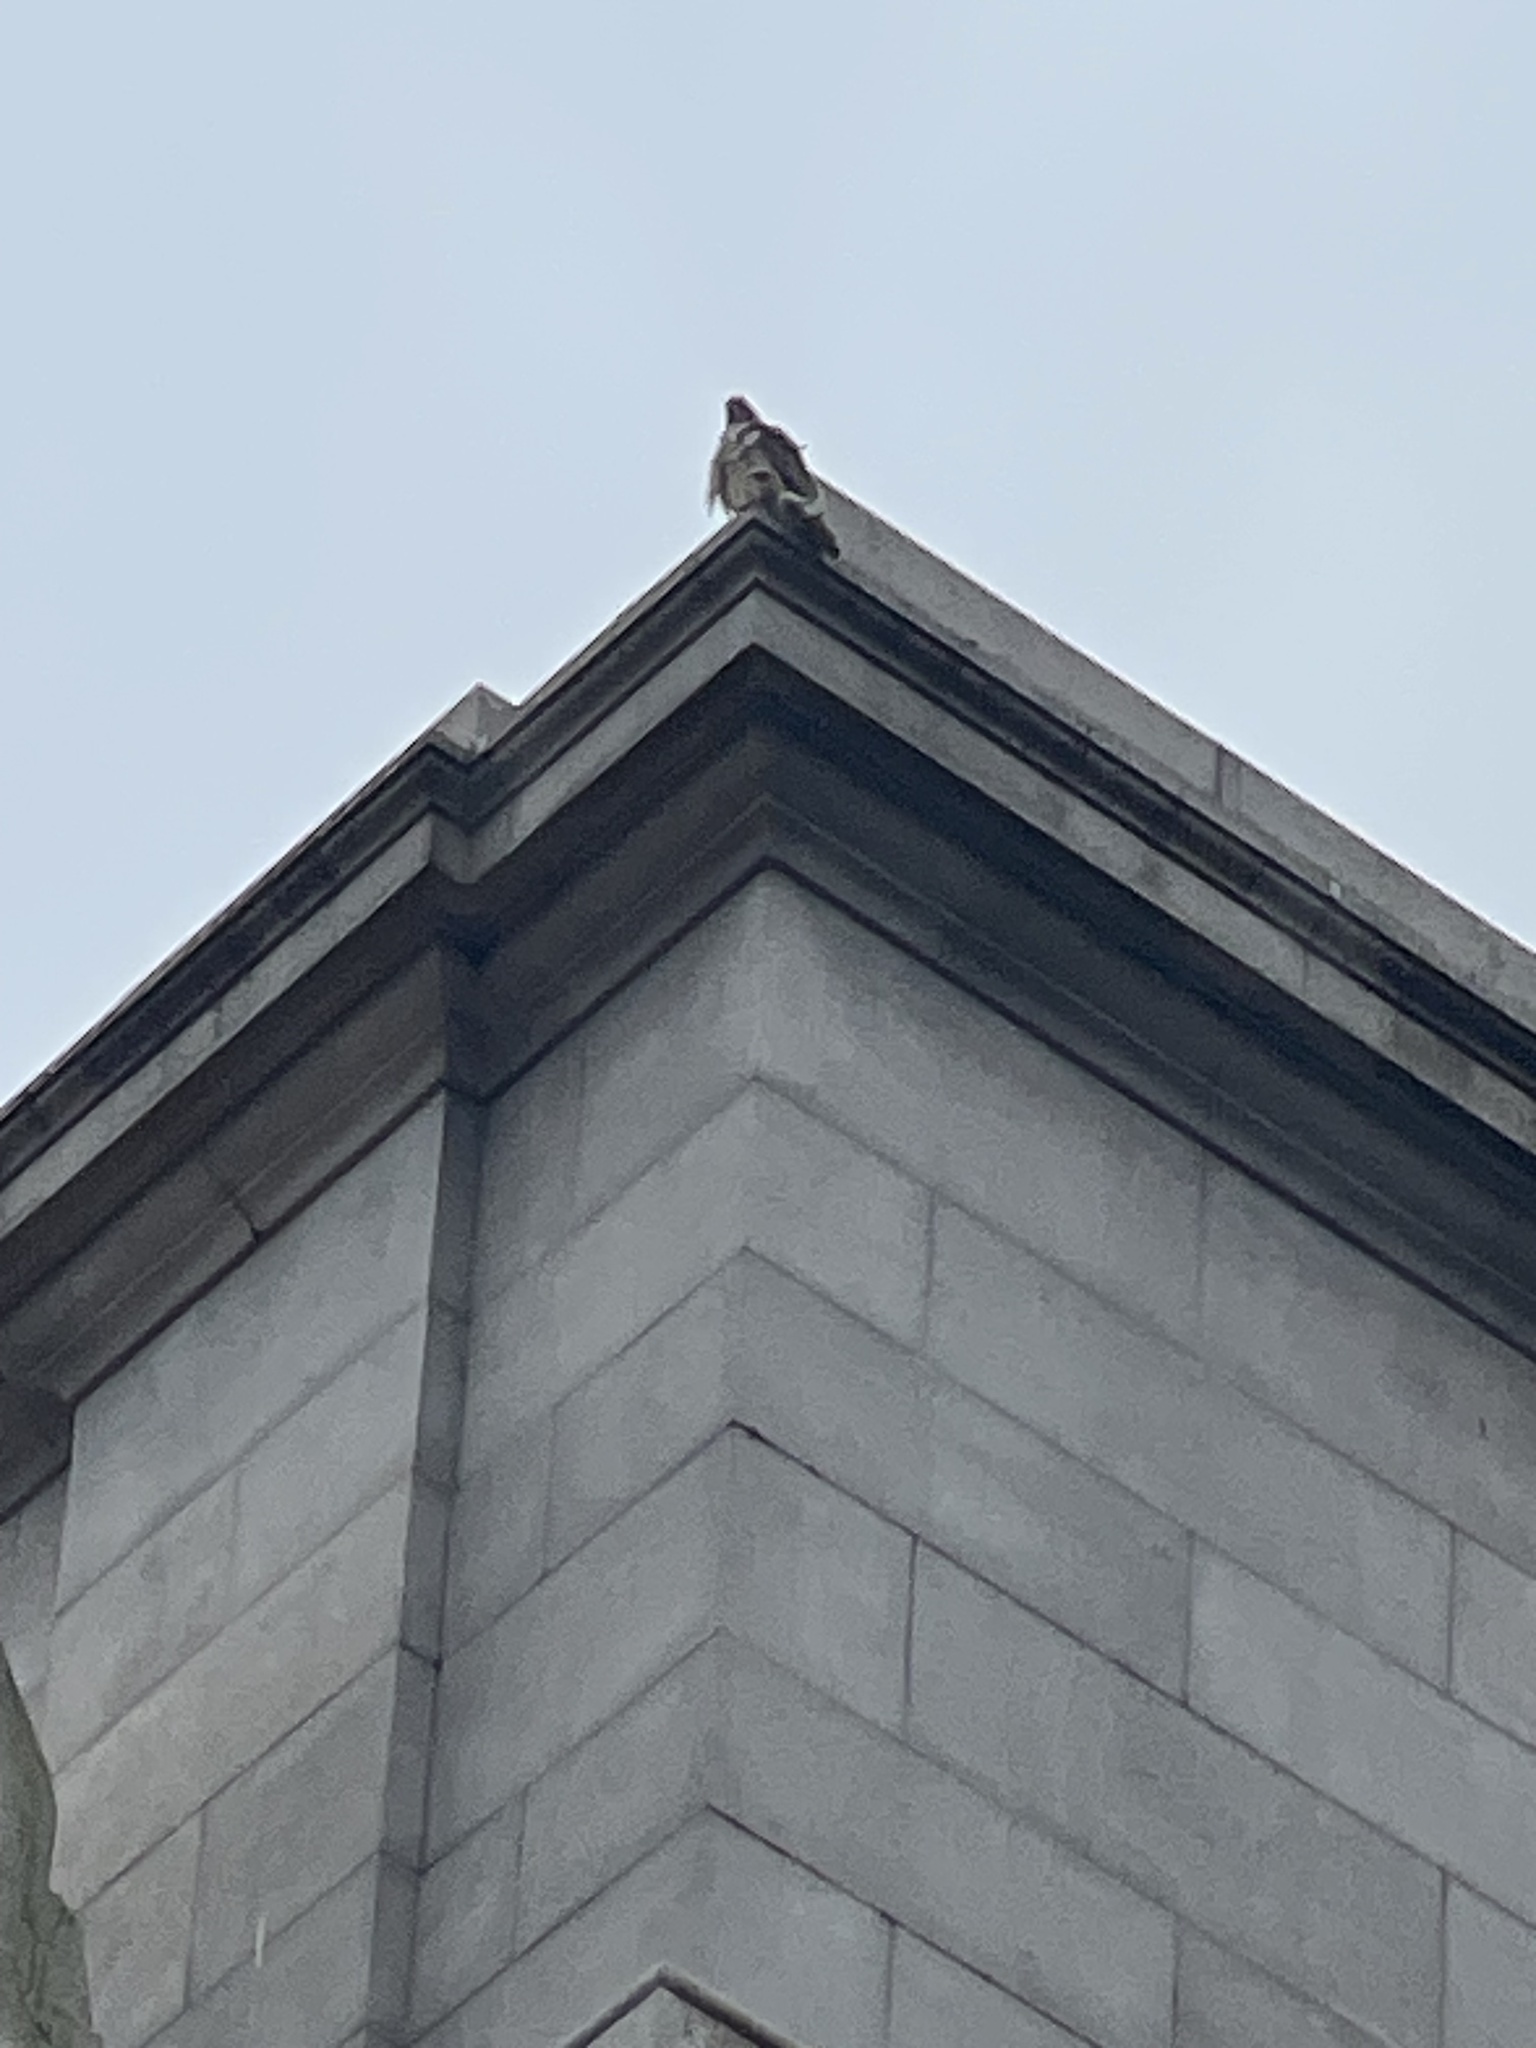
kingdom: Animalia
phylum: Chordata
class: Aves
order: Accipitriformes
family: Accipitridae
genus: Buteo
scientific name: Buteo jamaicensis
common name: Red-tailed hawk
